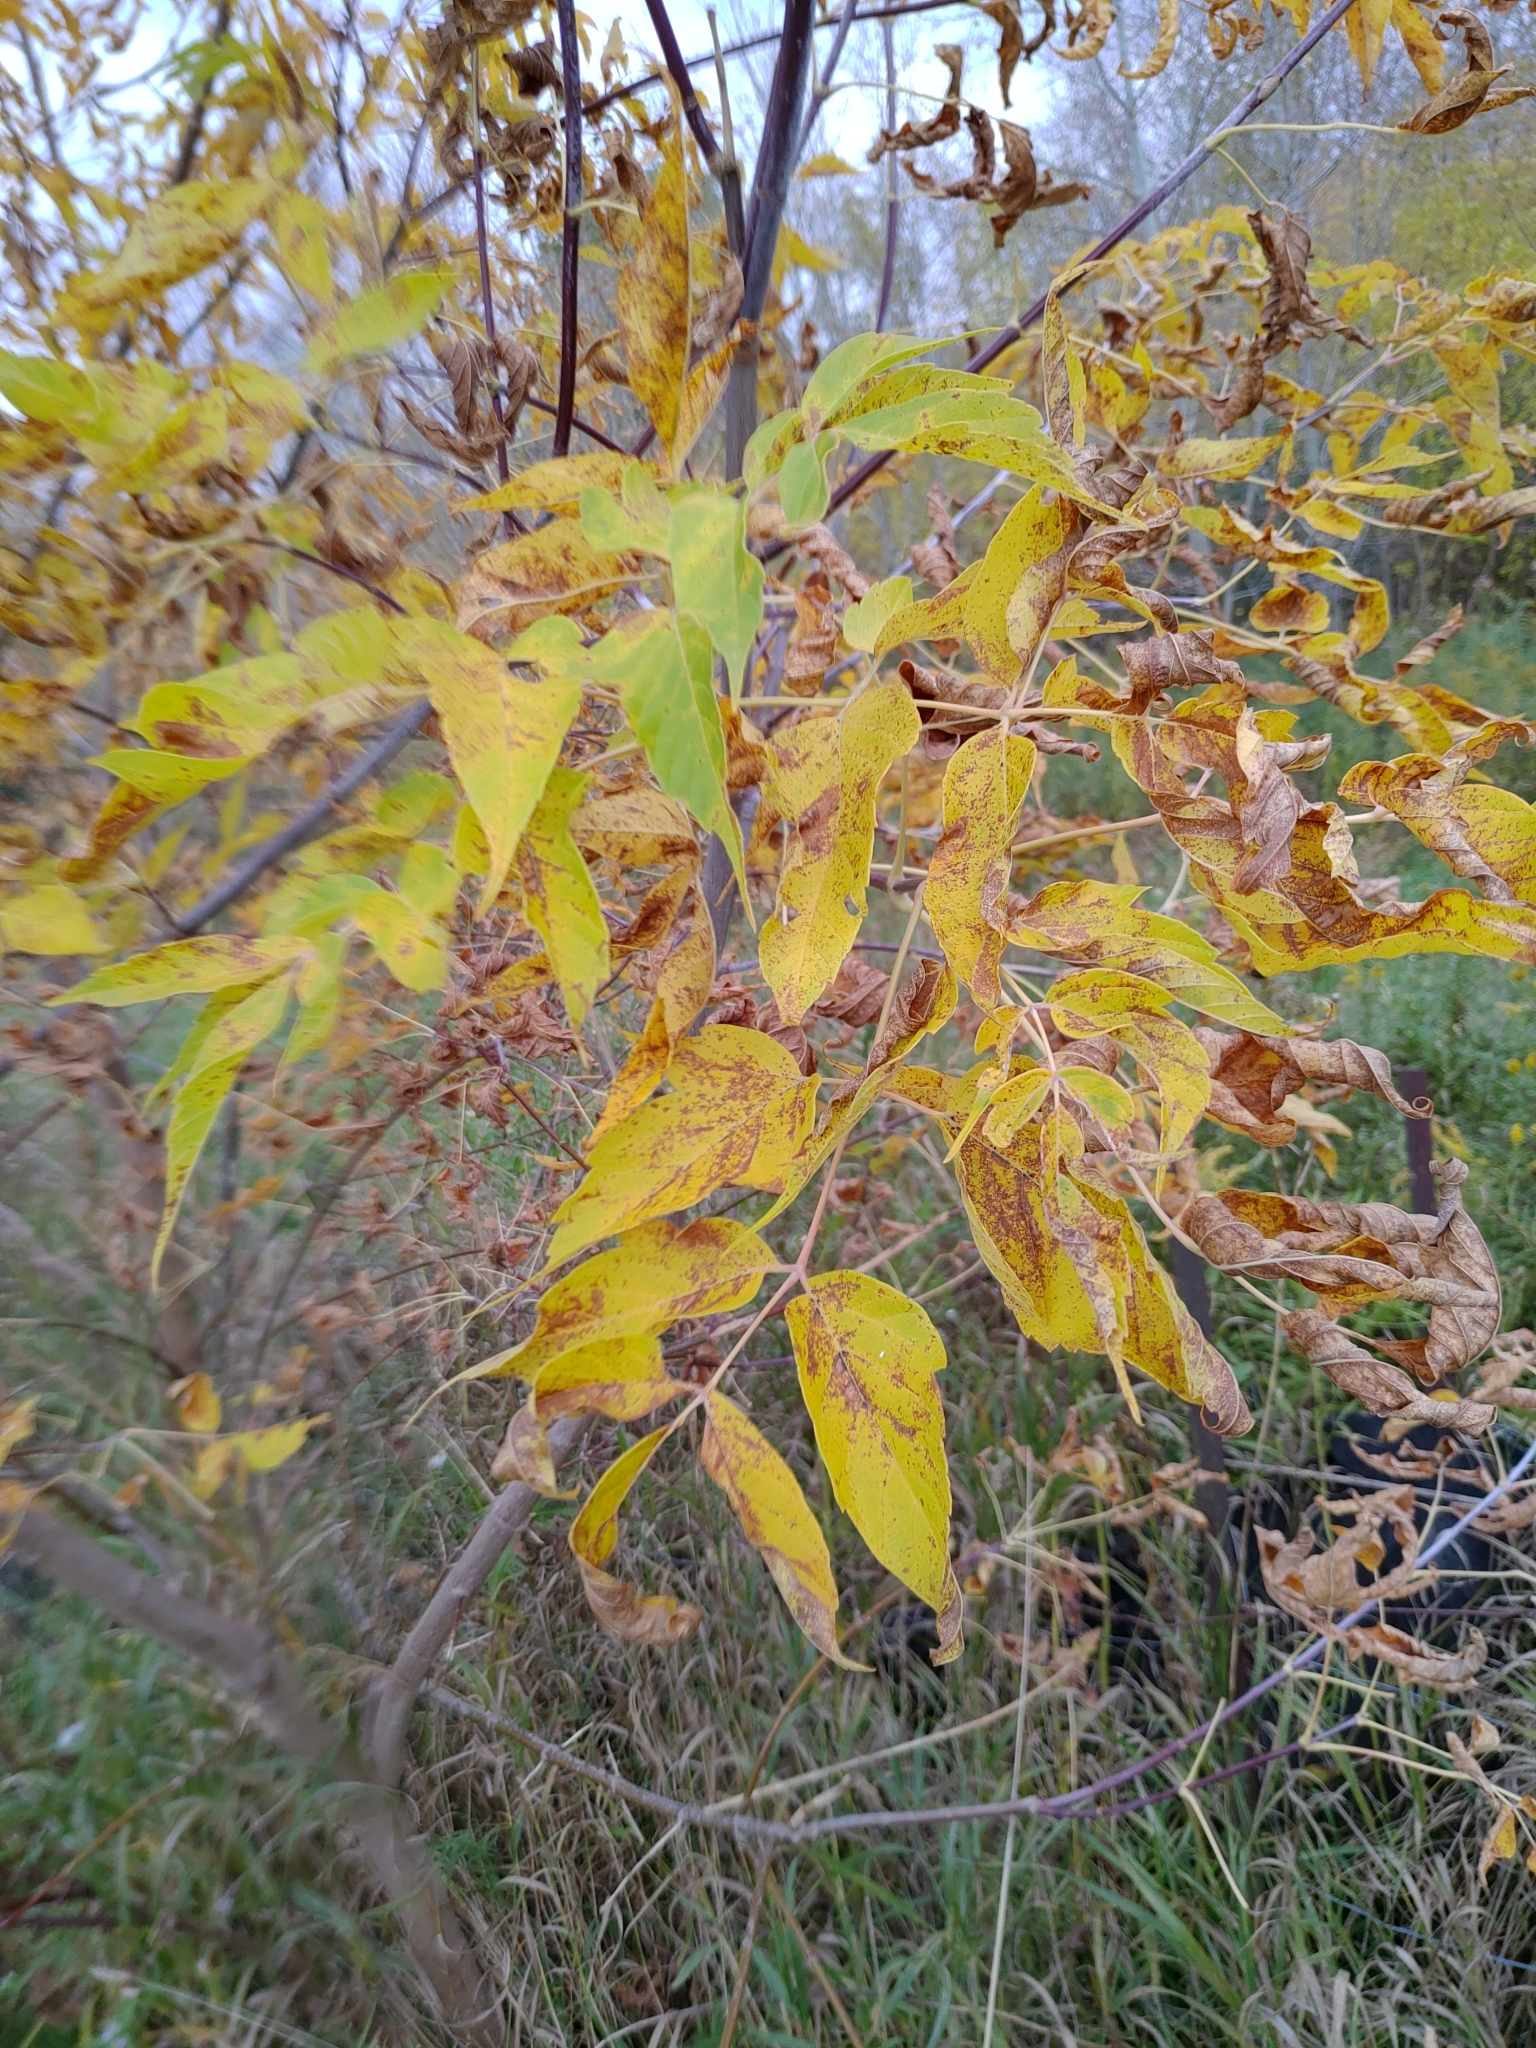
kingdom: Plantae
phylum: Tracheophyta
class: Magnoliopsida
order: Sapindales
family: Sapindaceae
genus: Acer
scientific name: Acer negundo
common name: Ashleaf maple
